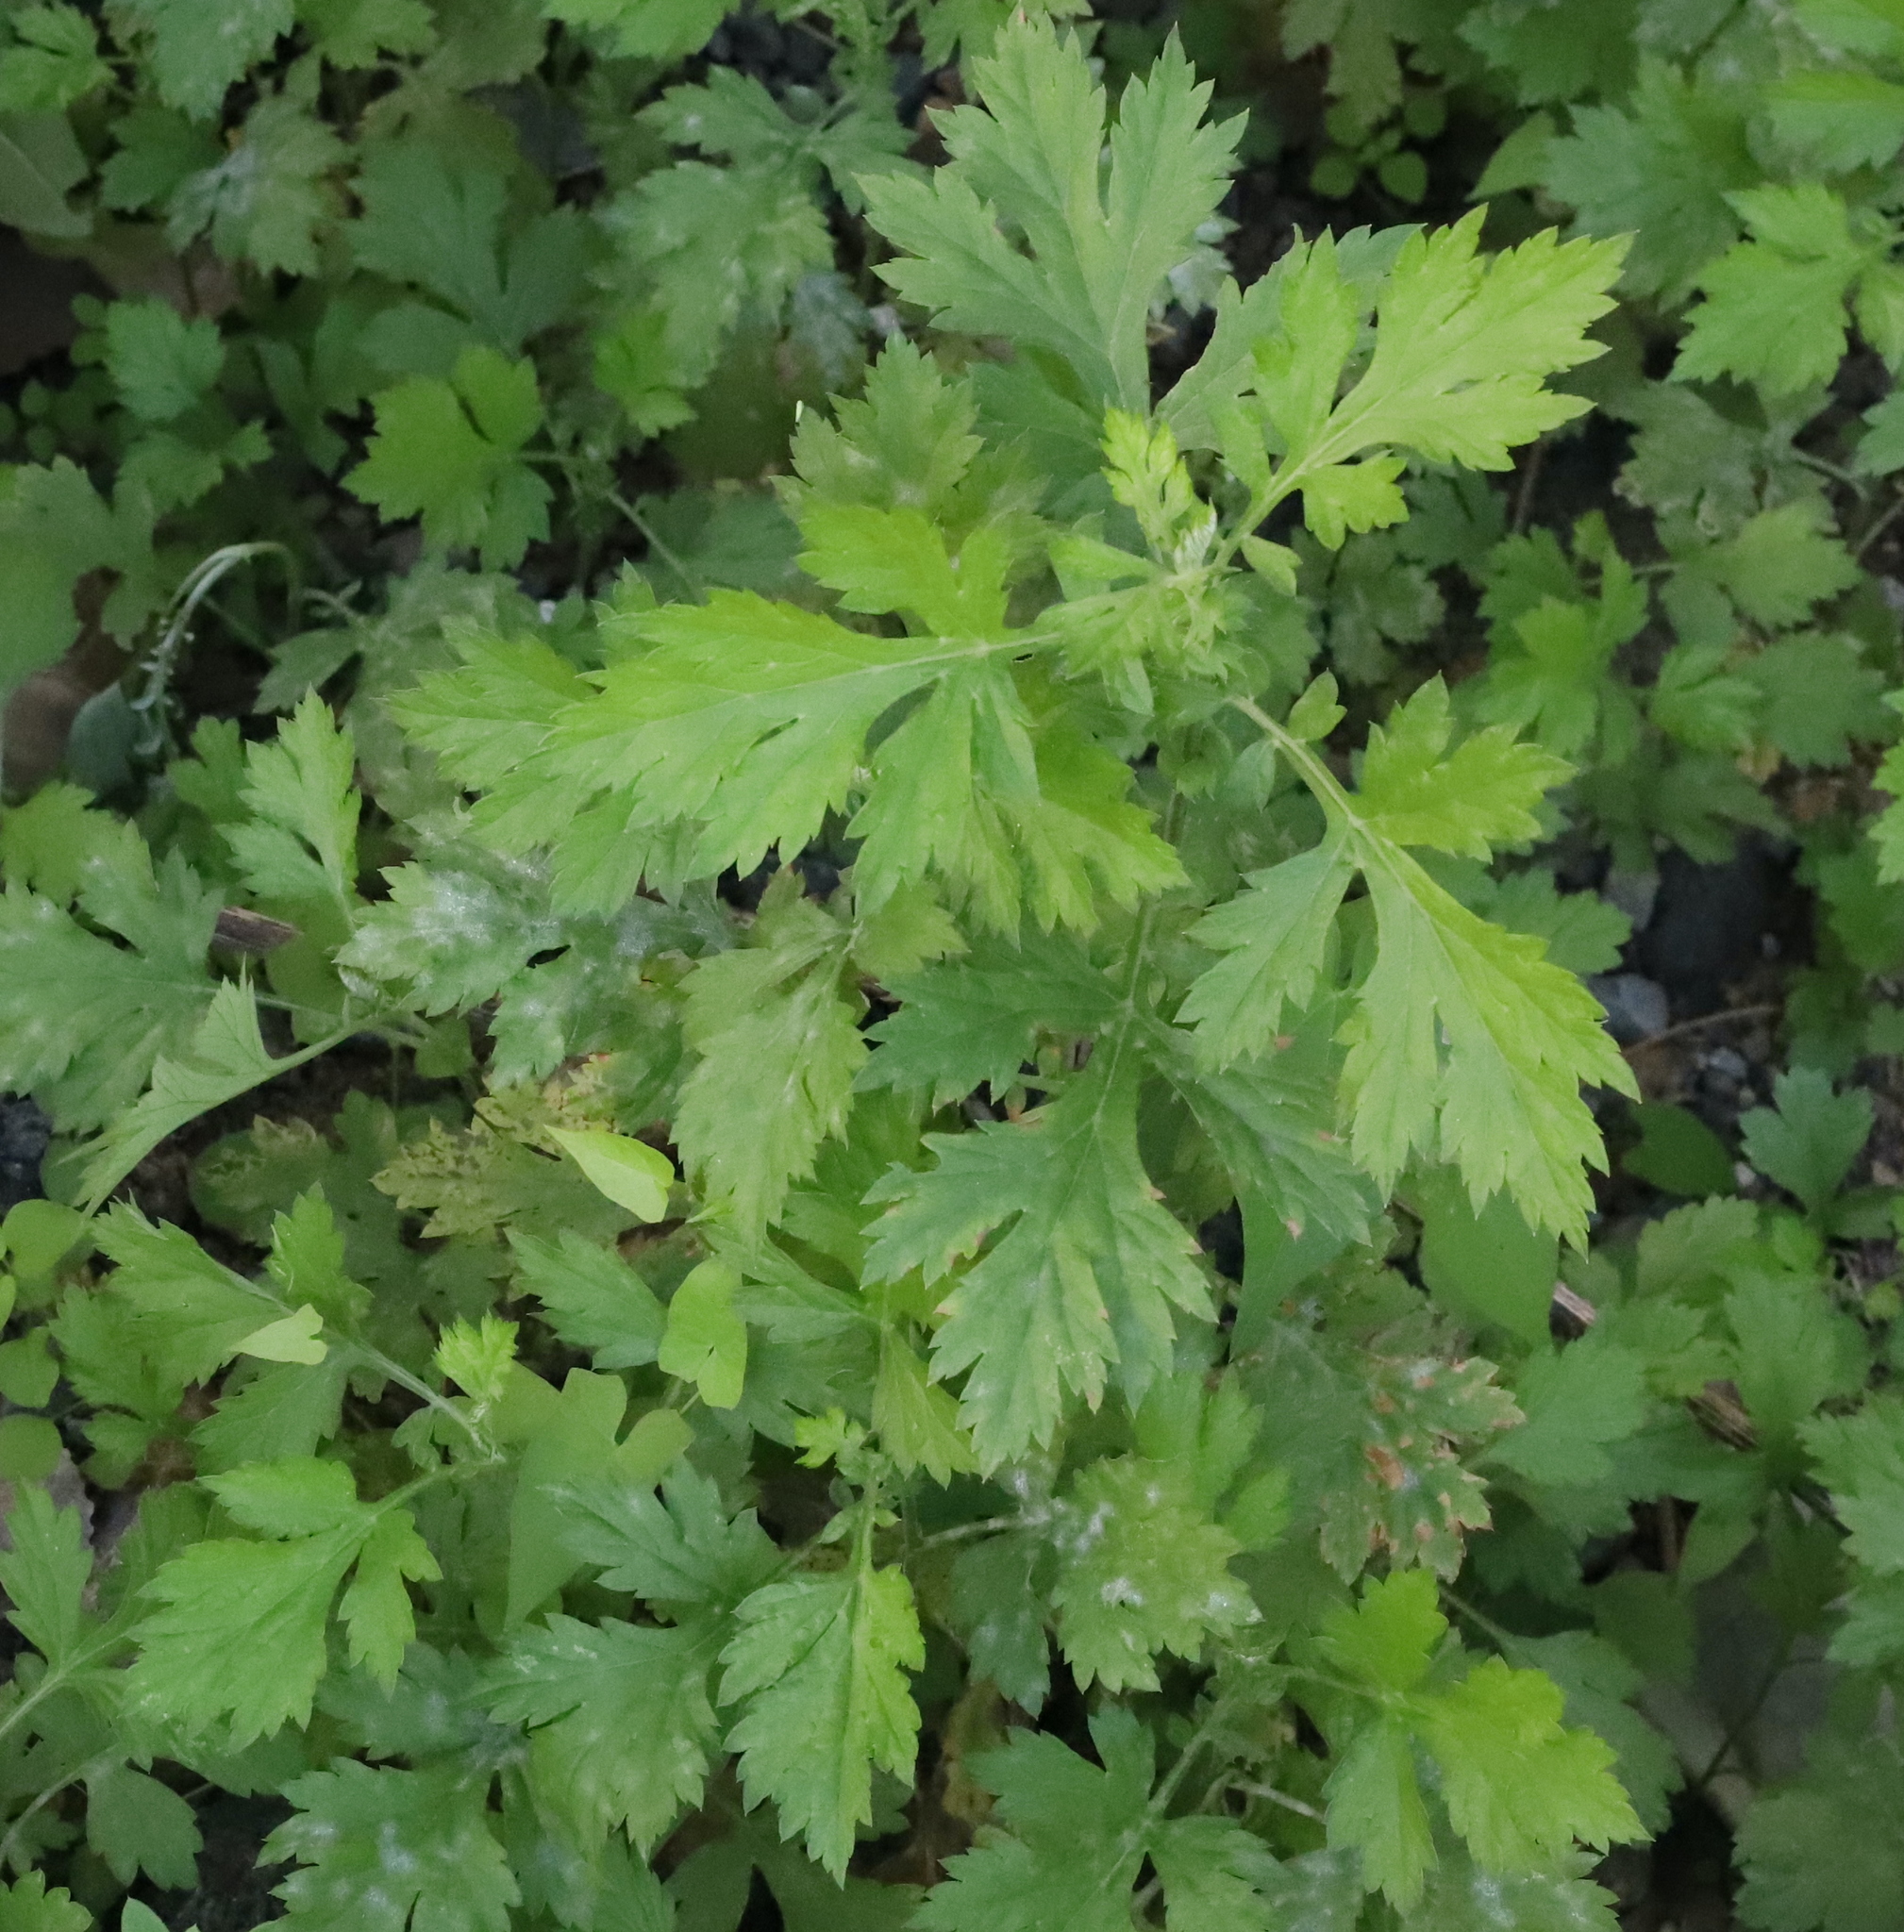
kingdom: Plantae
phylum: Tracheophyta
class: Magnoliopsida
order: Asterales
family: Asteraceae
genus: Artemisia
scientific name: Artemisia vulgaris
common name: Mugwort
